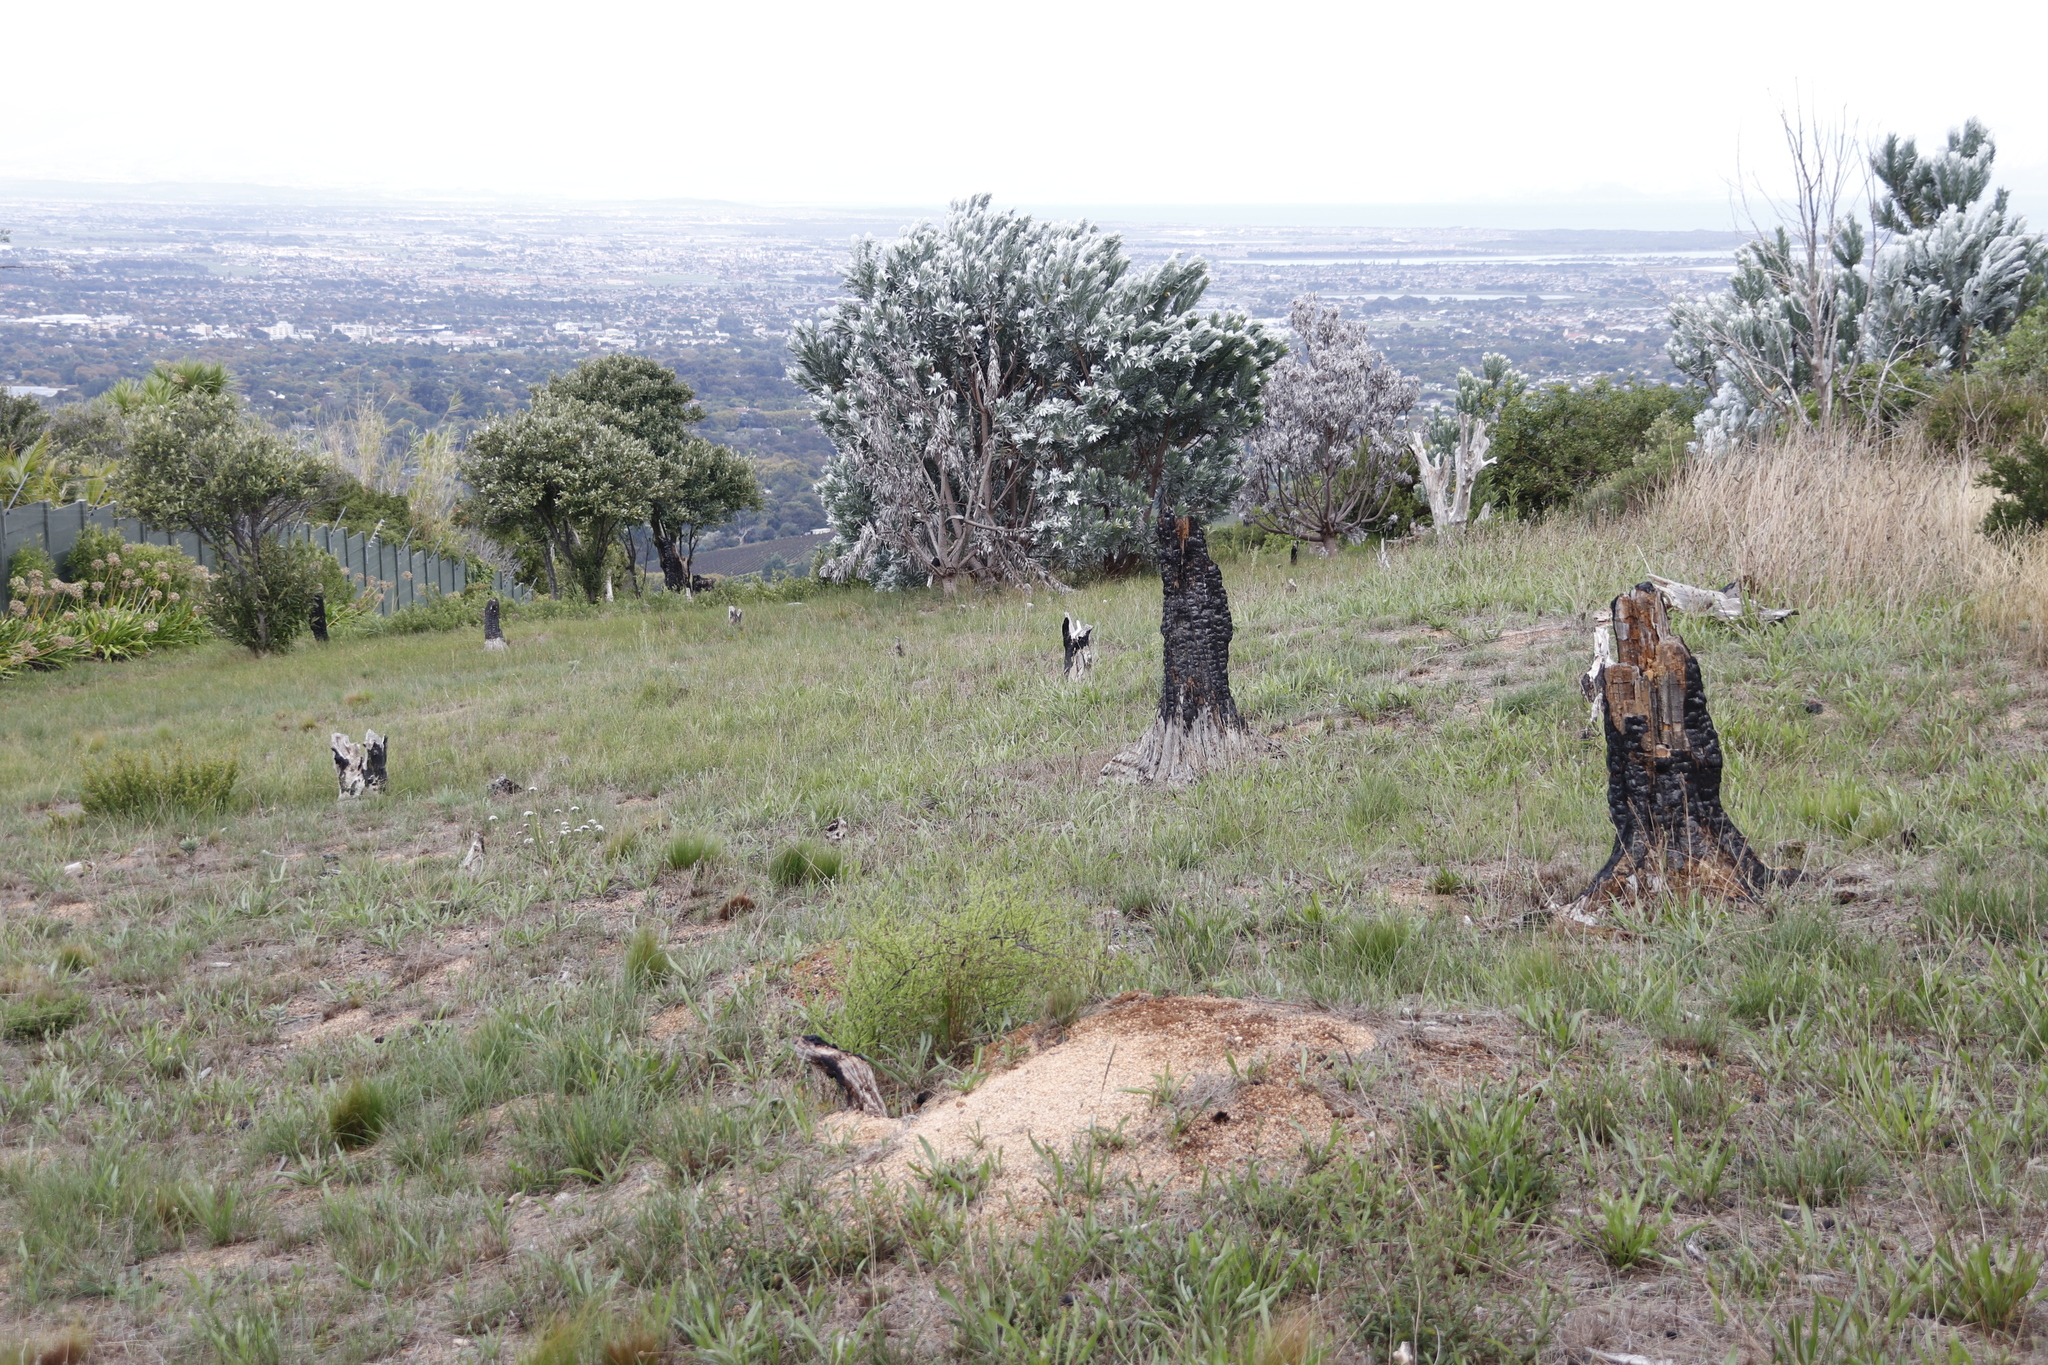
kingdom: Plantae
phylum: Tracheophyta
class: Magnoliopsida
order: Proteales
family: Proteaceae
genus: Leucadendron
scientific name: Leucadendron argenteum
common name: Cape silver tree
